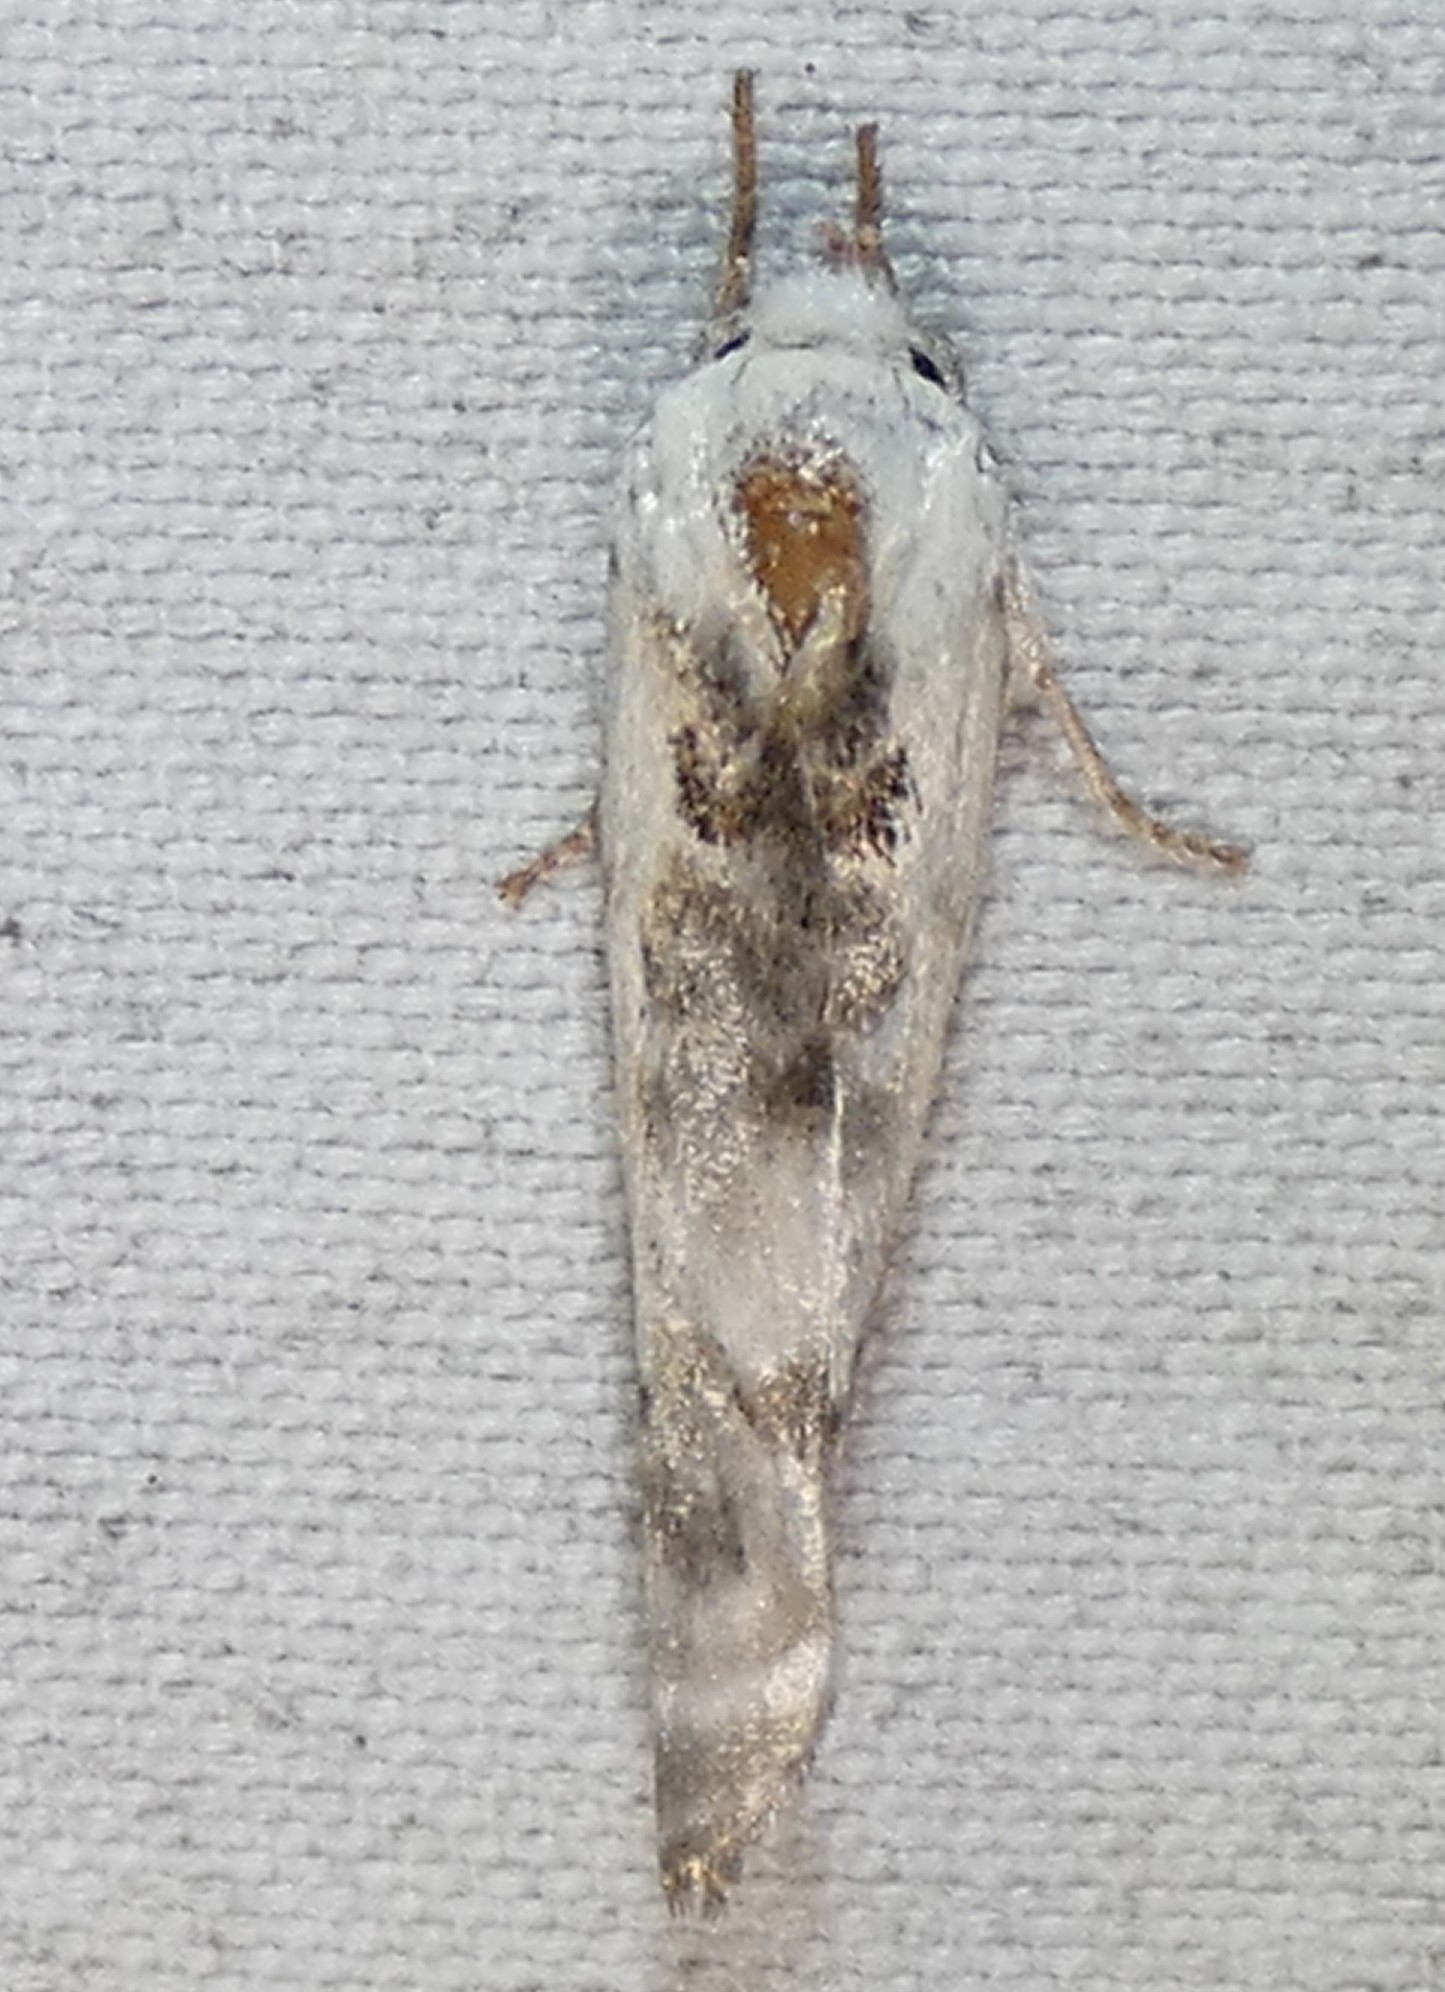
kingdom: Animalia
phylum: Arthropoda
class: Insecta
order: Lepidoptera
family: Depressariidae
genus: Antaeotricha
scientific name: Antaeotricha leucillana
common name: Pale gray bird-dropping moth
